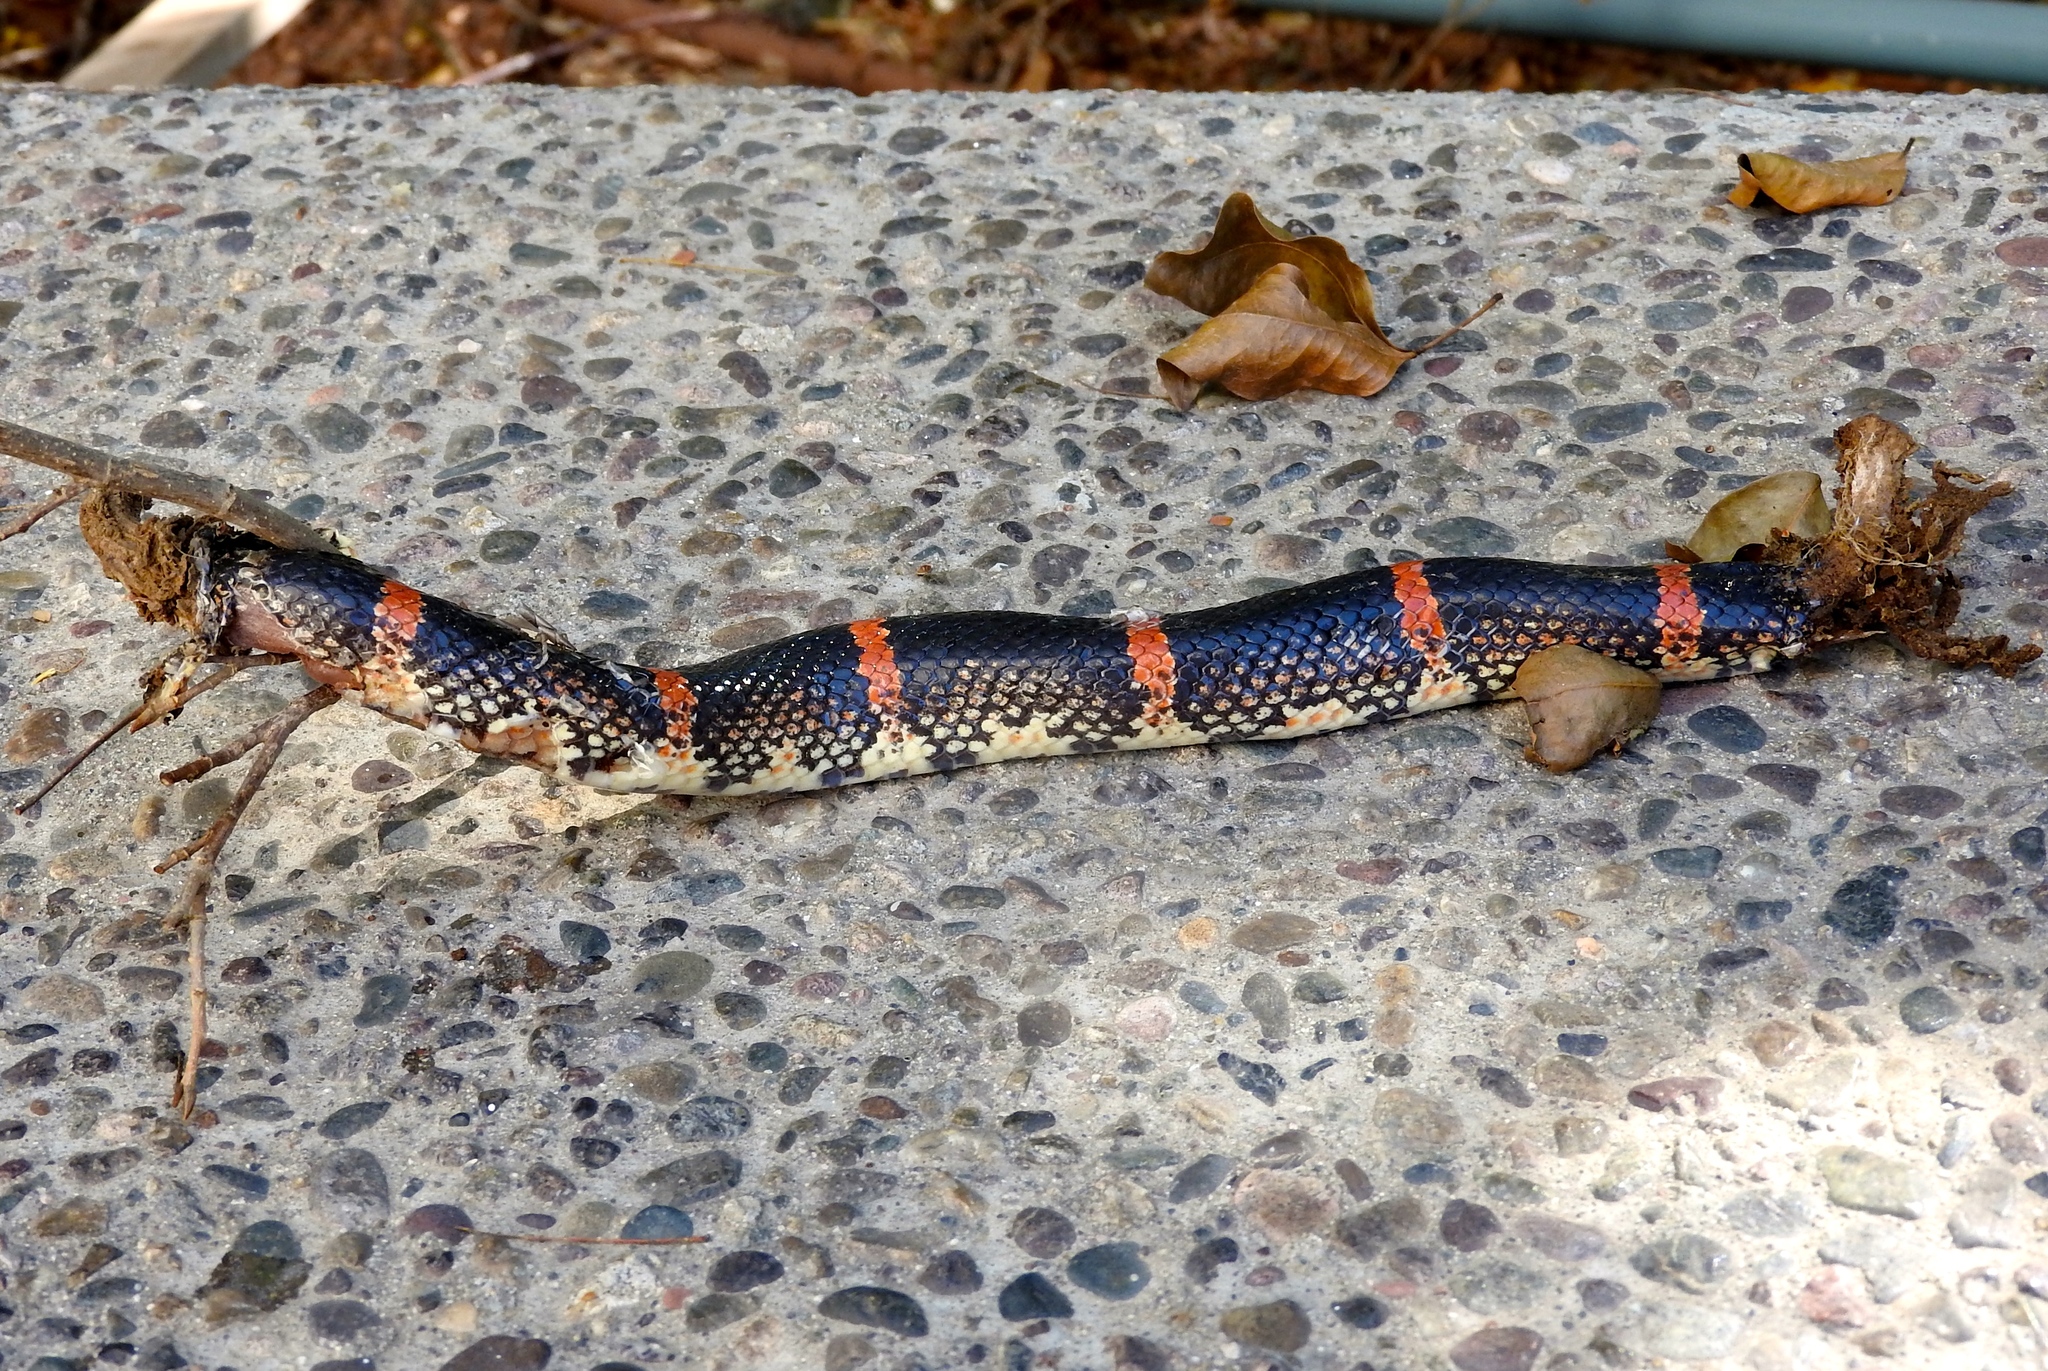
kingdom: Animalia
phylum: Chordata
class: Squamata
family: Colubridae
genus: Rhinocheilus
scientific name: Rhinocheilus antonii
